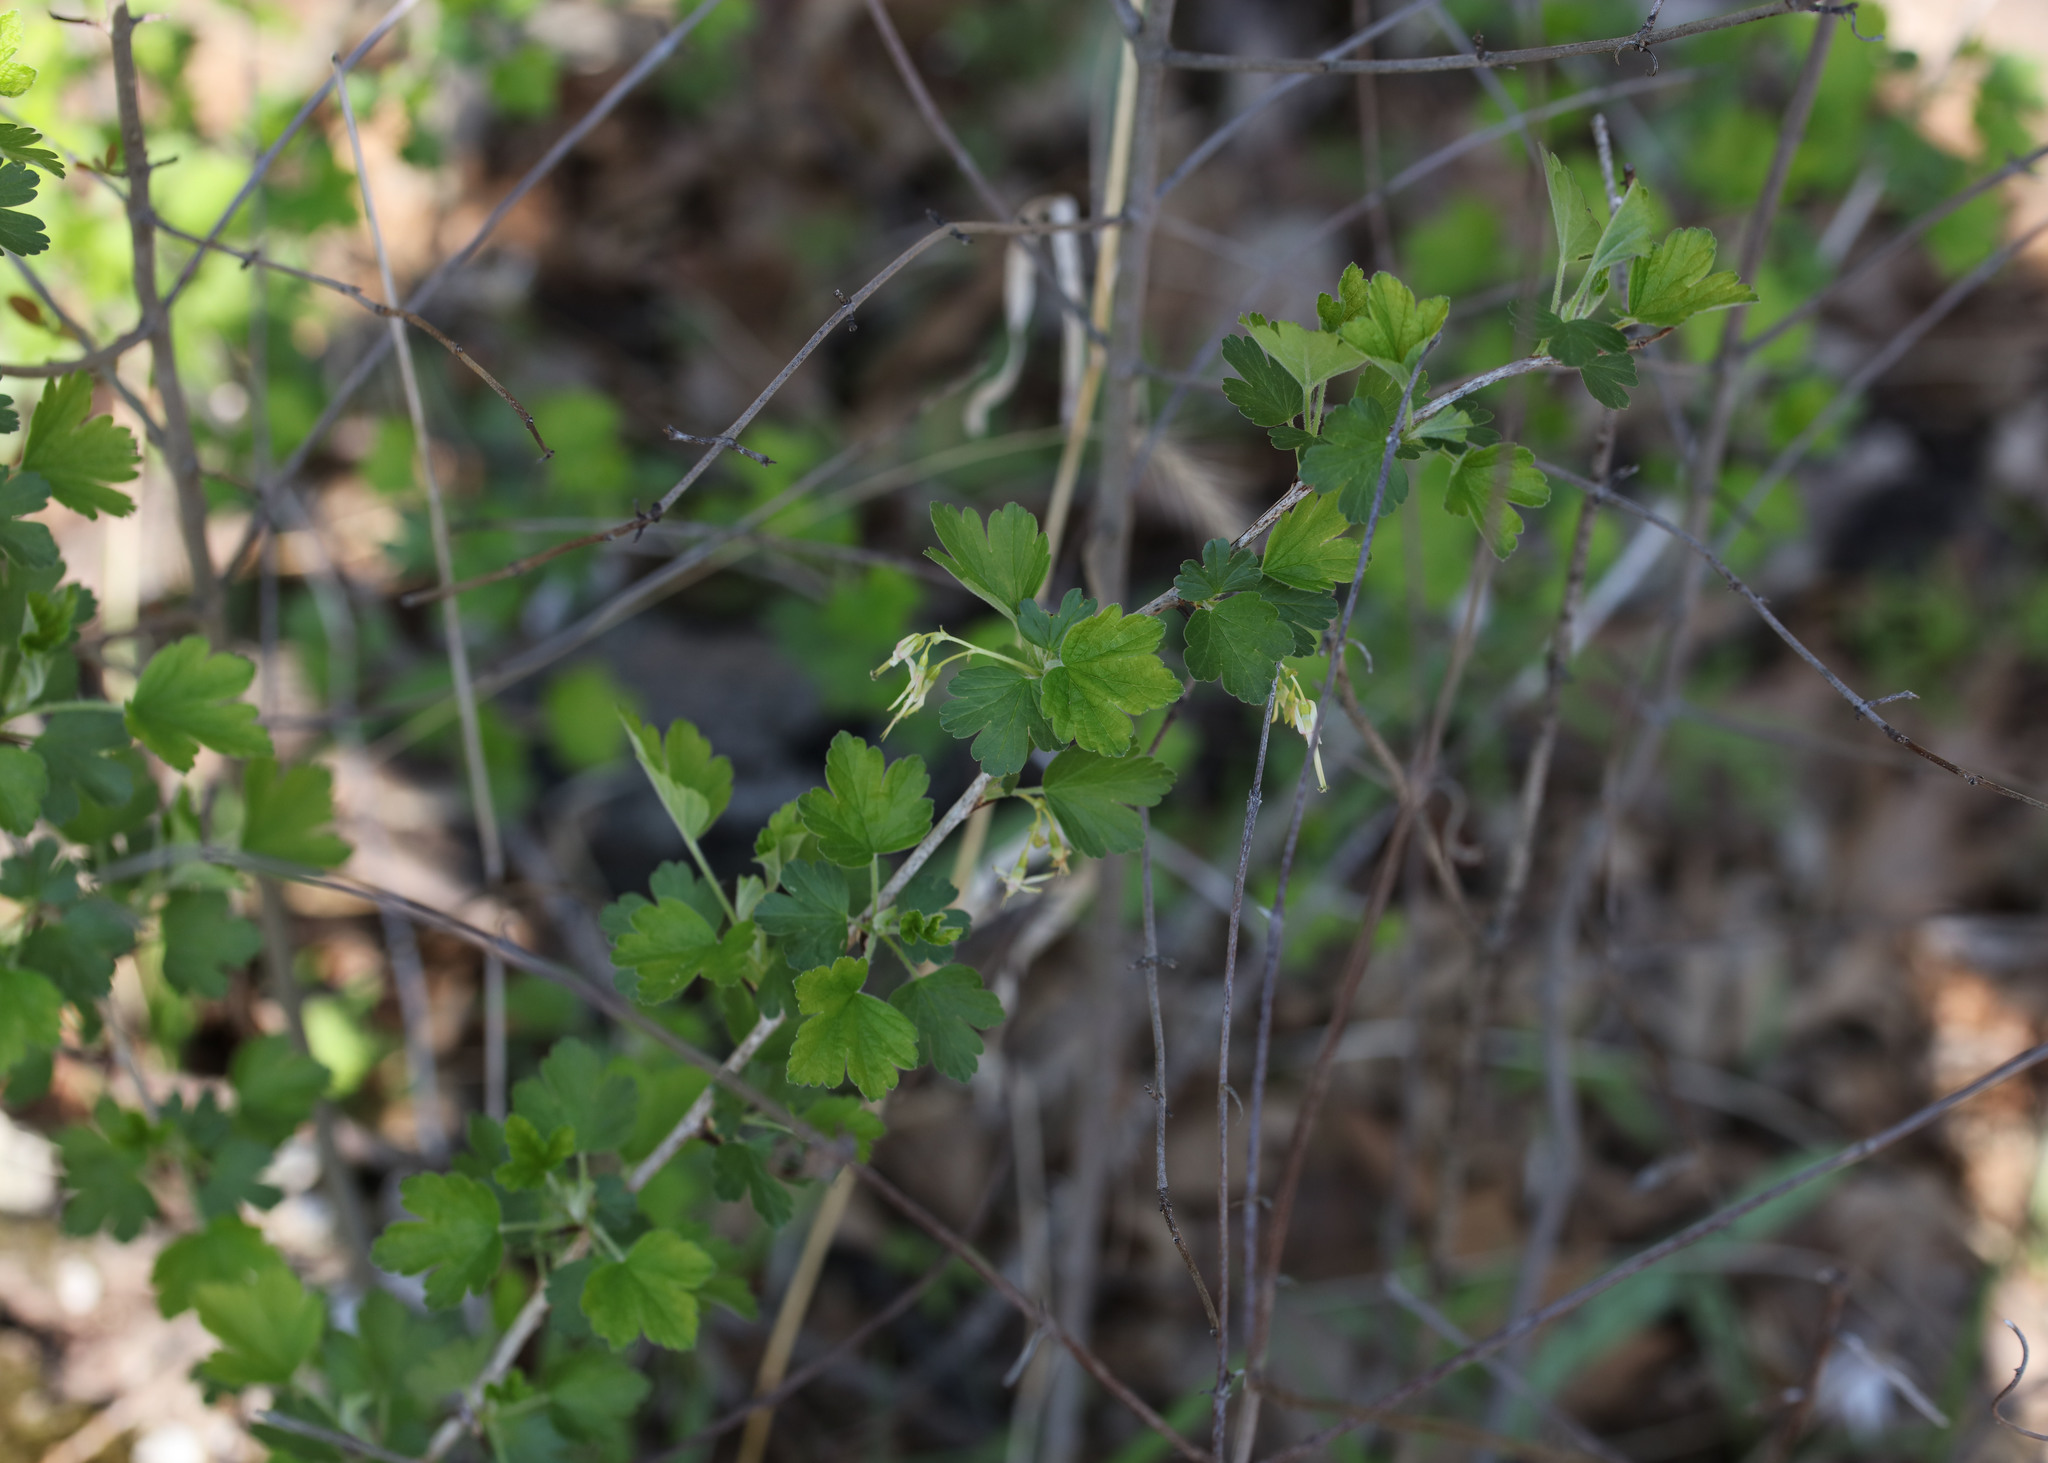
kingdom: Plantae
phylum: Tracheophyta
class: Magnoliopsida
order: Saxifragales
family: Grossulariaceae
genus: Ribes
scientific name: Ribes missouriense
